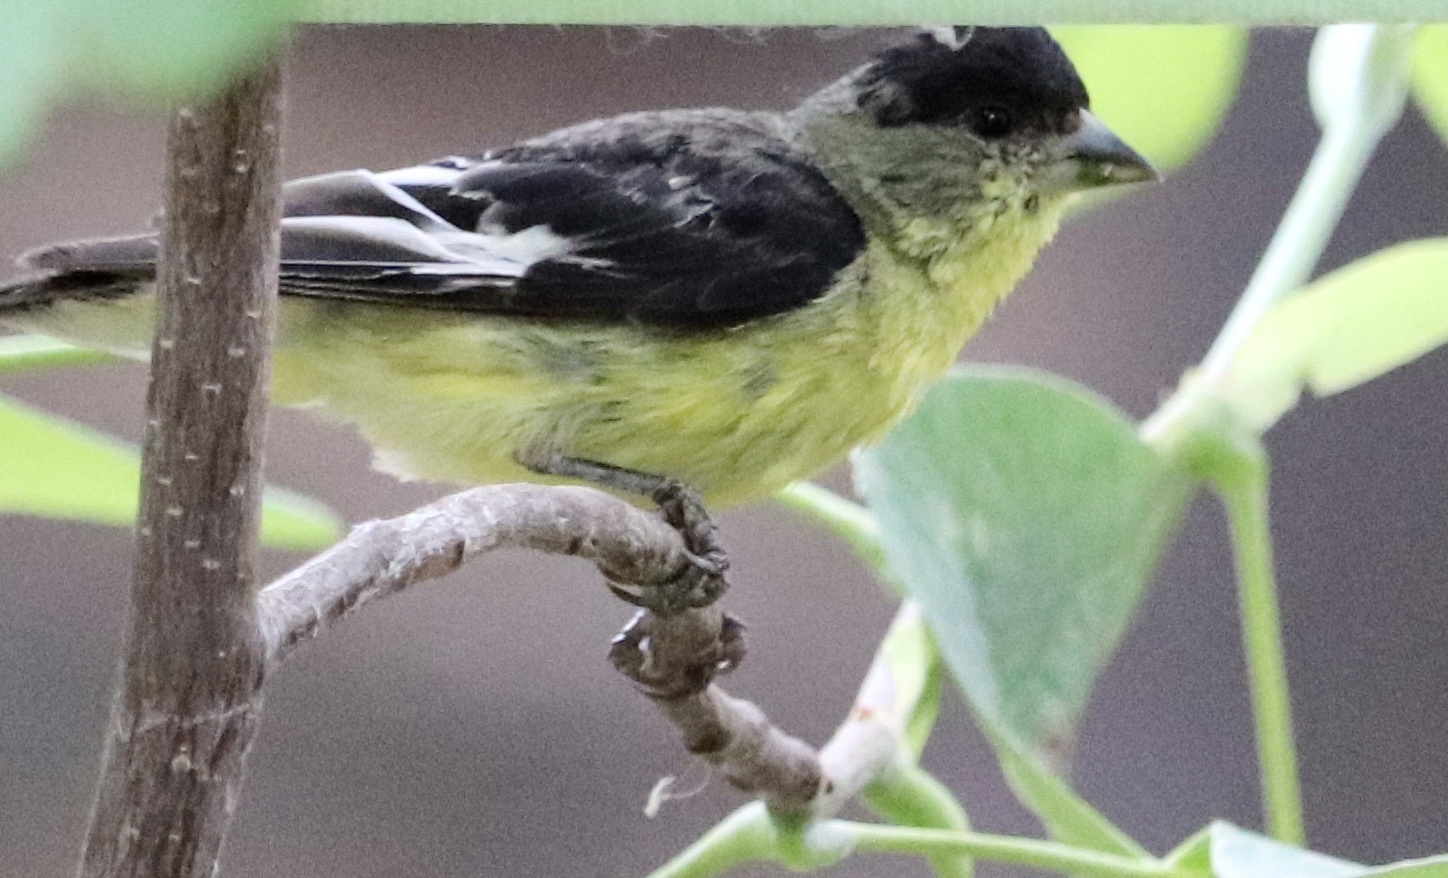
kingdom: Animalia
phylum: Chordata
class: Aves
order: Passeriformes
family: Fringillidae
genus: Spinus
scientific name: Spinus psaltria
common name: Lesser goldfinch
